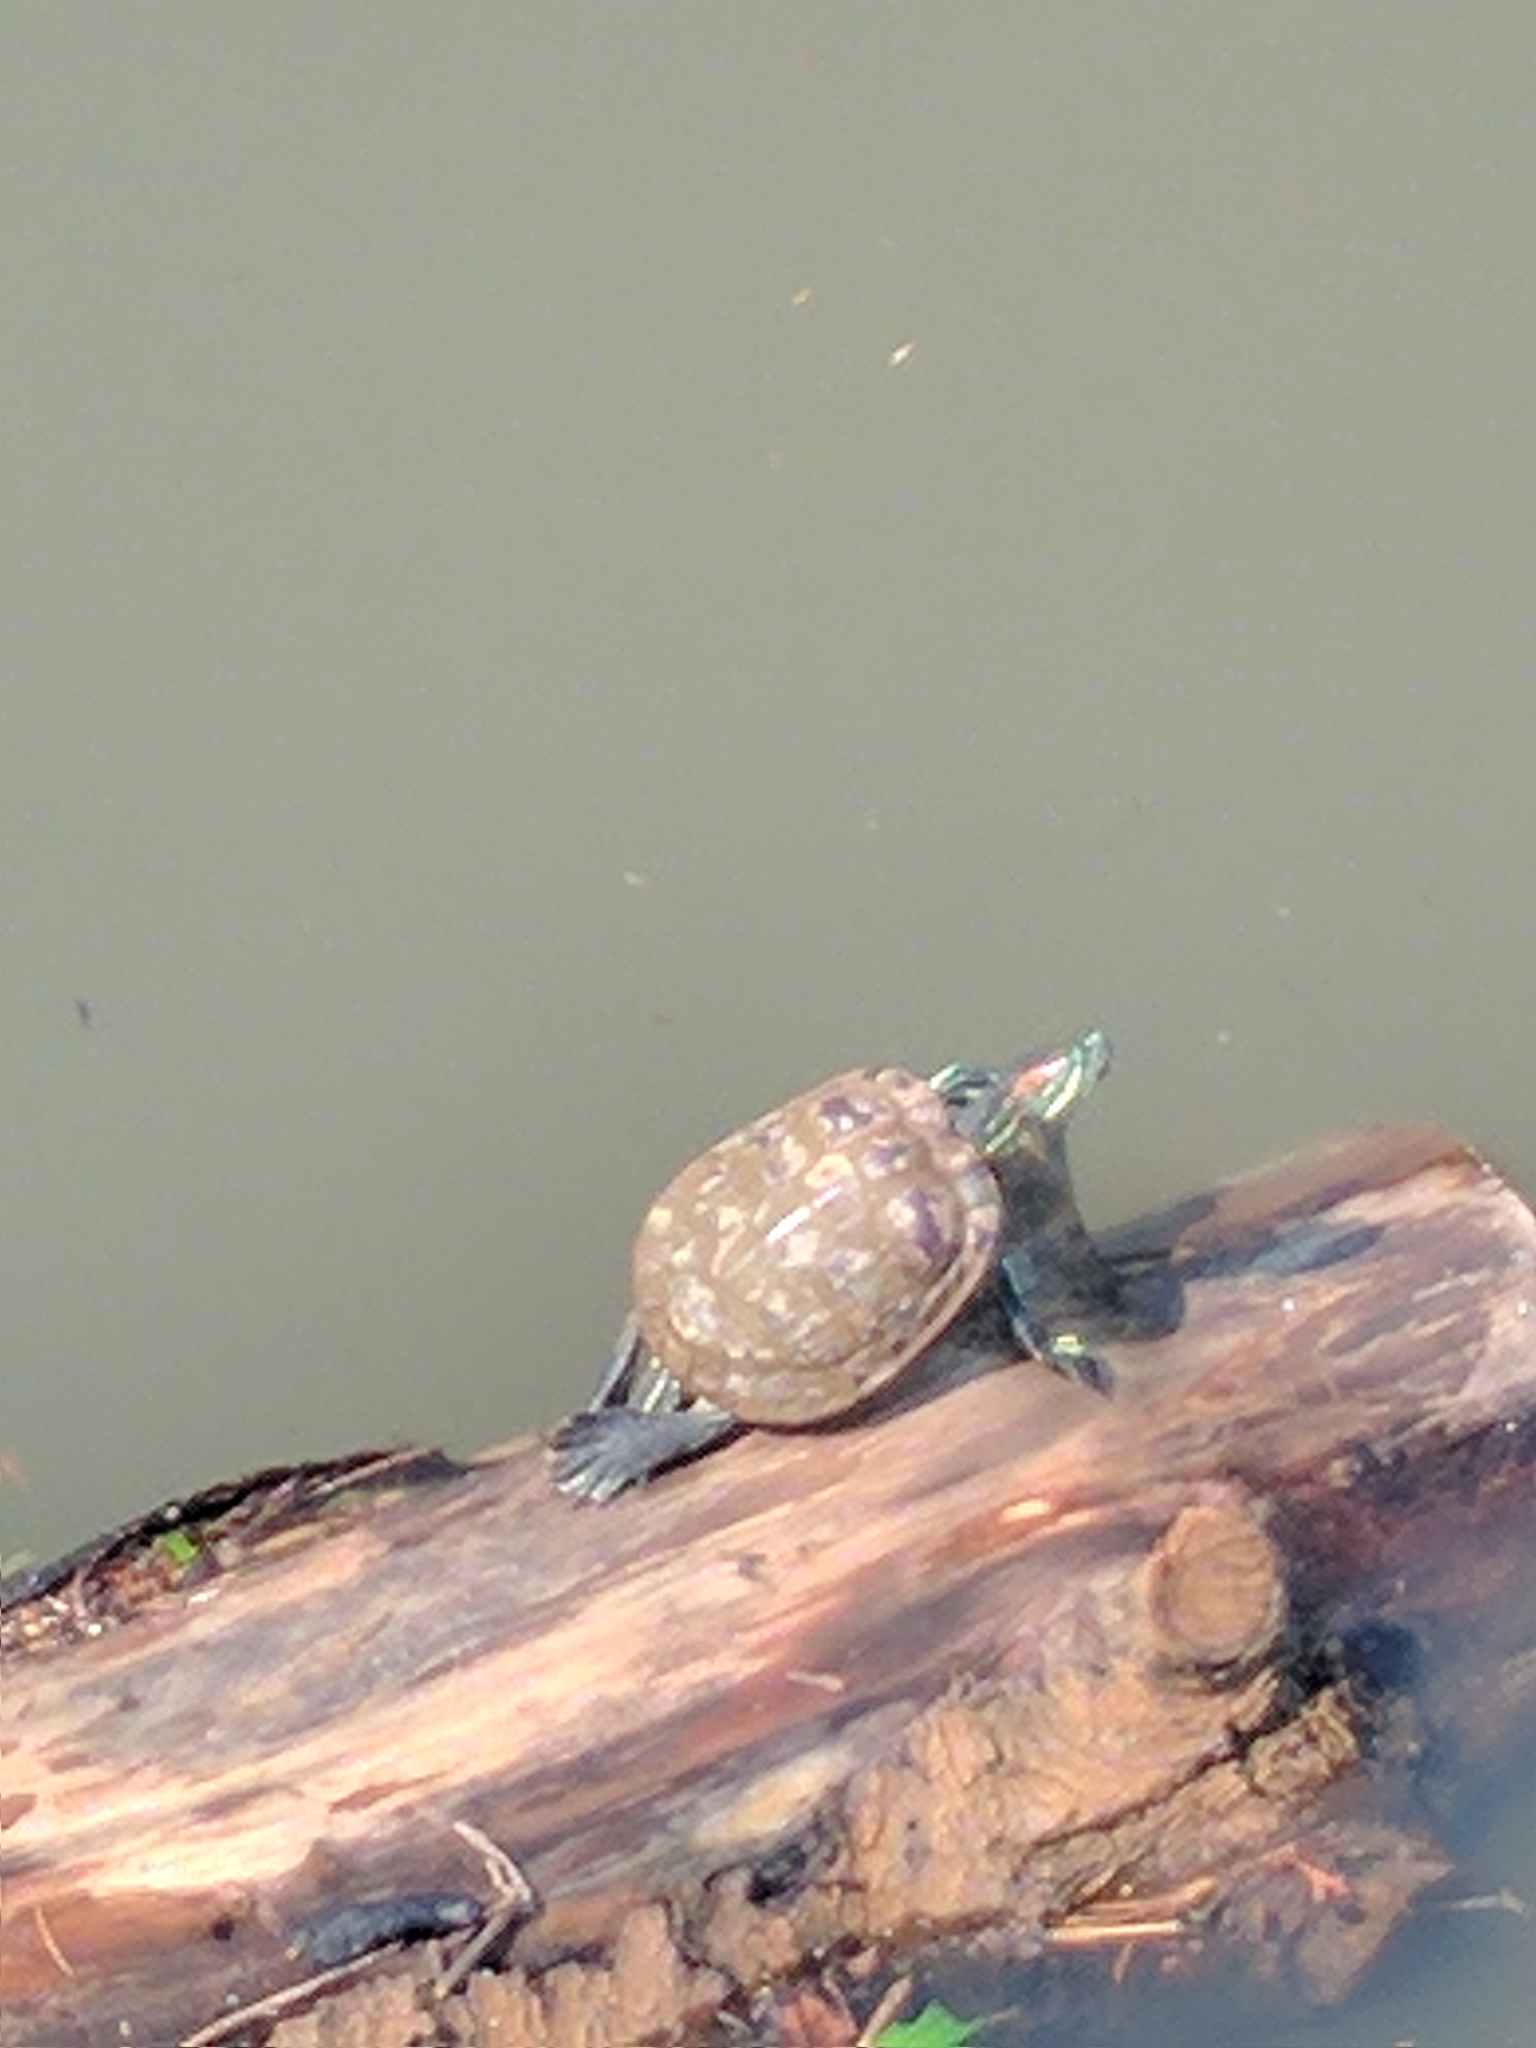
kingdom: Animalia
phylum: Chordata
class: Testudines
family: Emydidae
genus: Trachemys
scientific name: Trachemys scripta
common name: Slider
